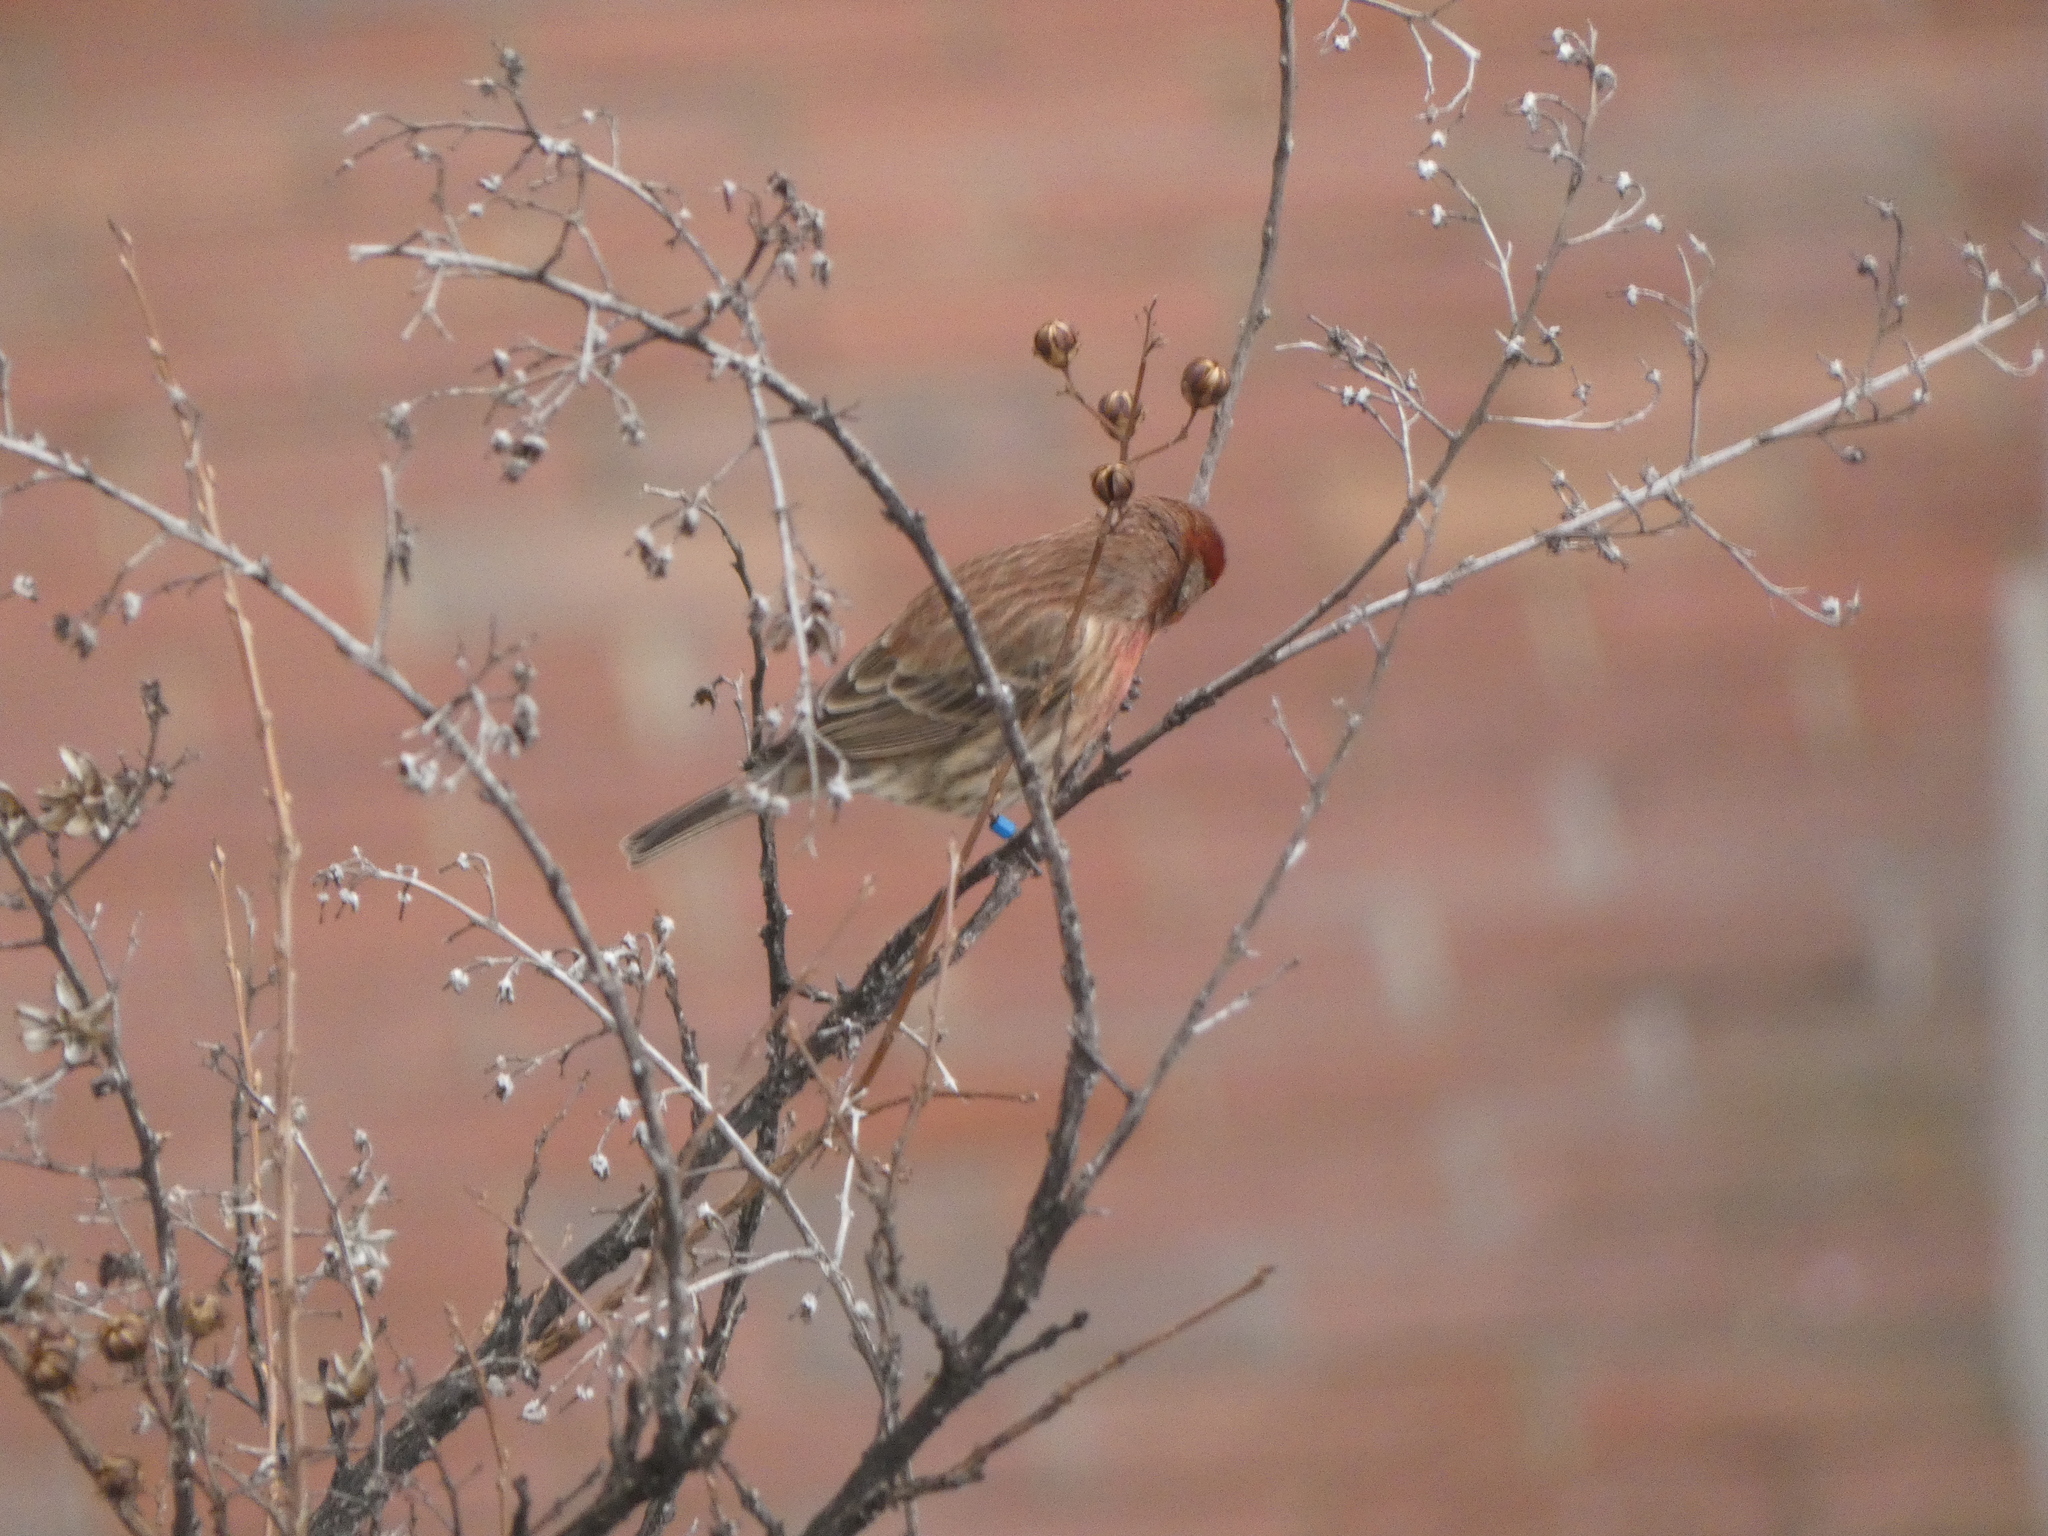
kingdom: Animalia
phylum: Chordata
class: Aves
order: Passeriformes
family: Fringillidae
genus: Haemorhous
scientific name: Haemorhous mexicanus
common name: House finch
